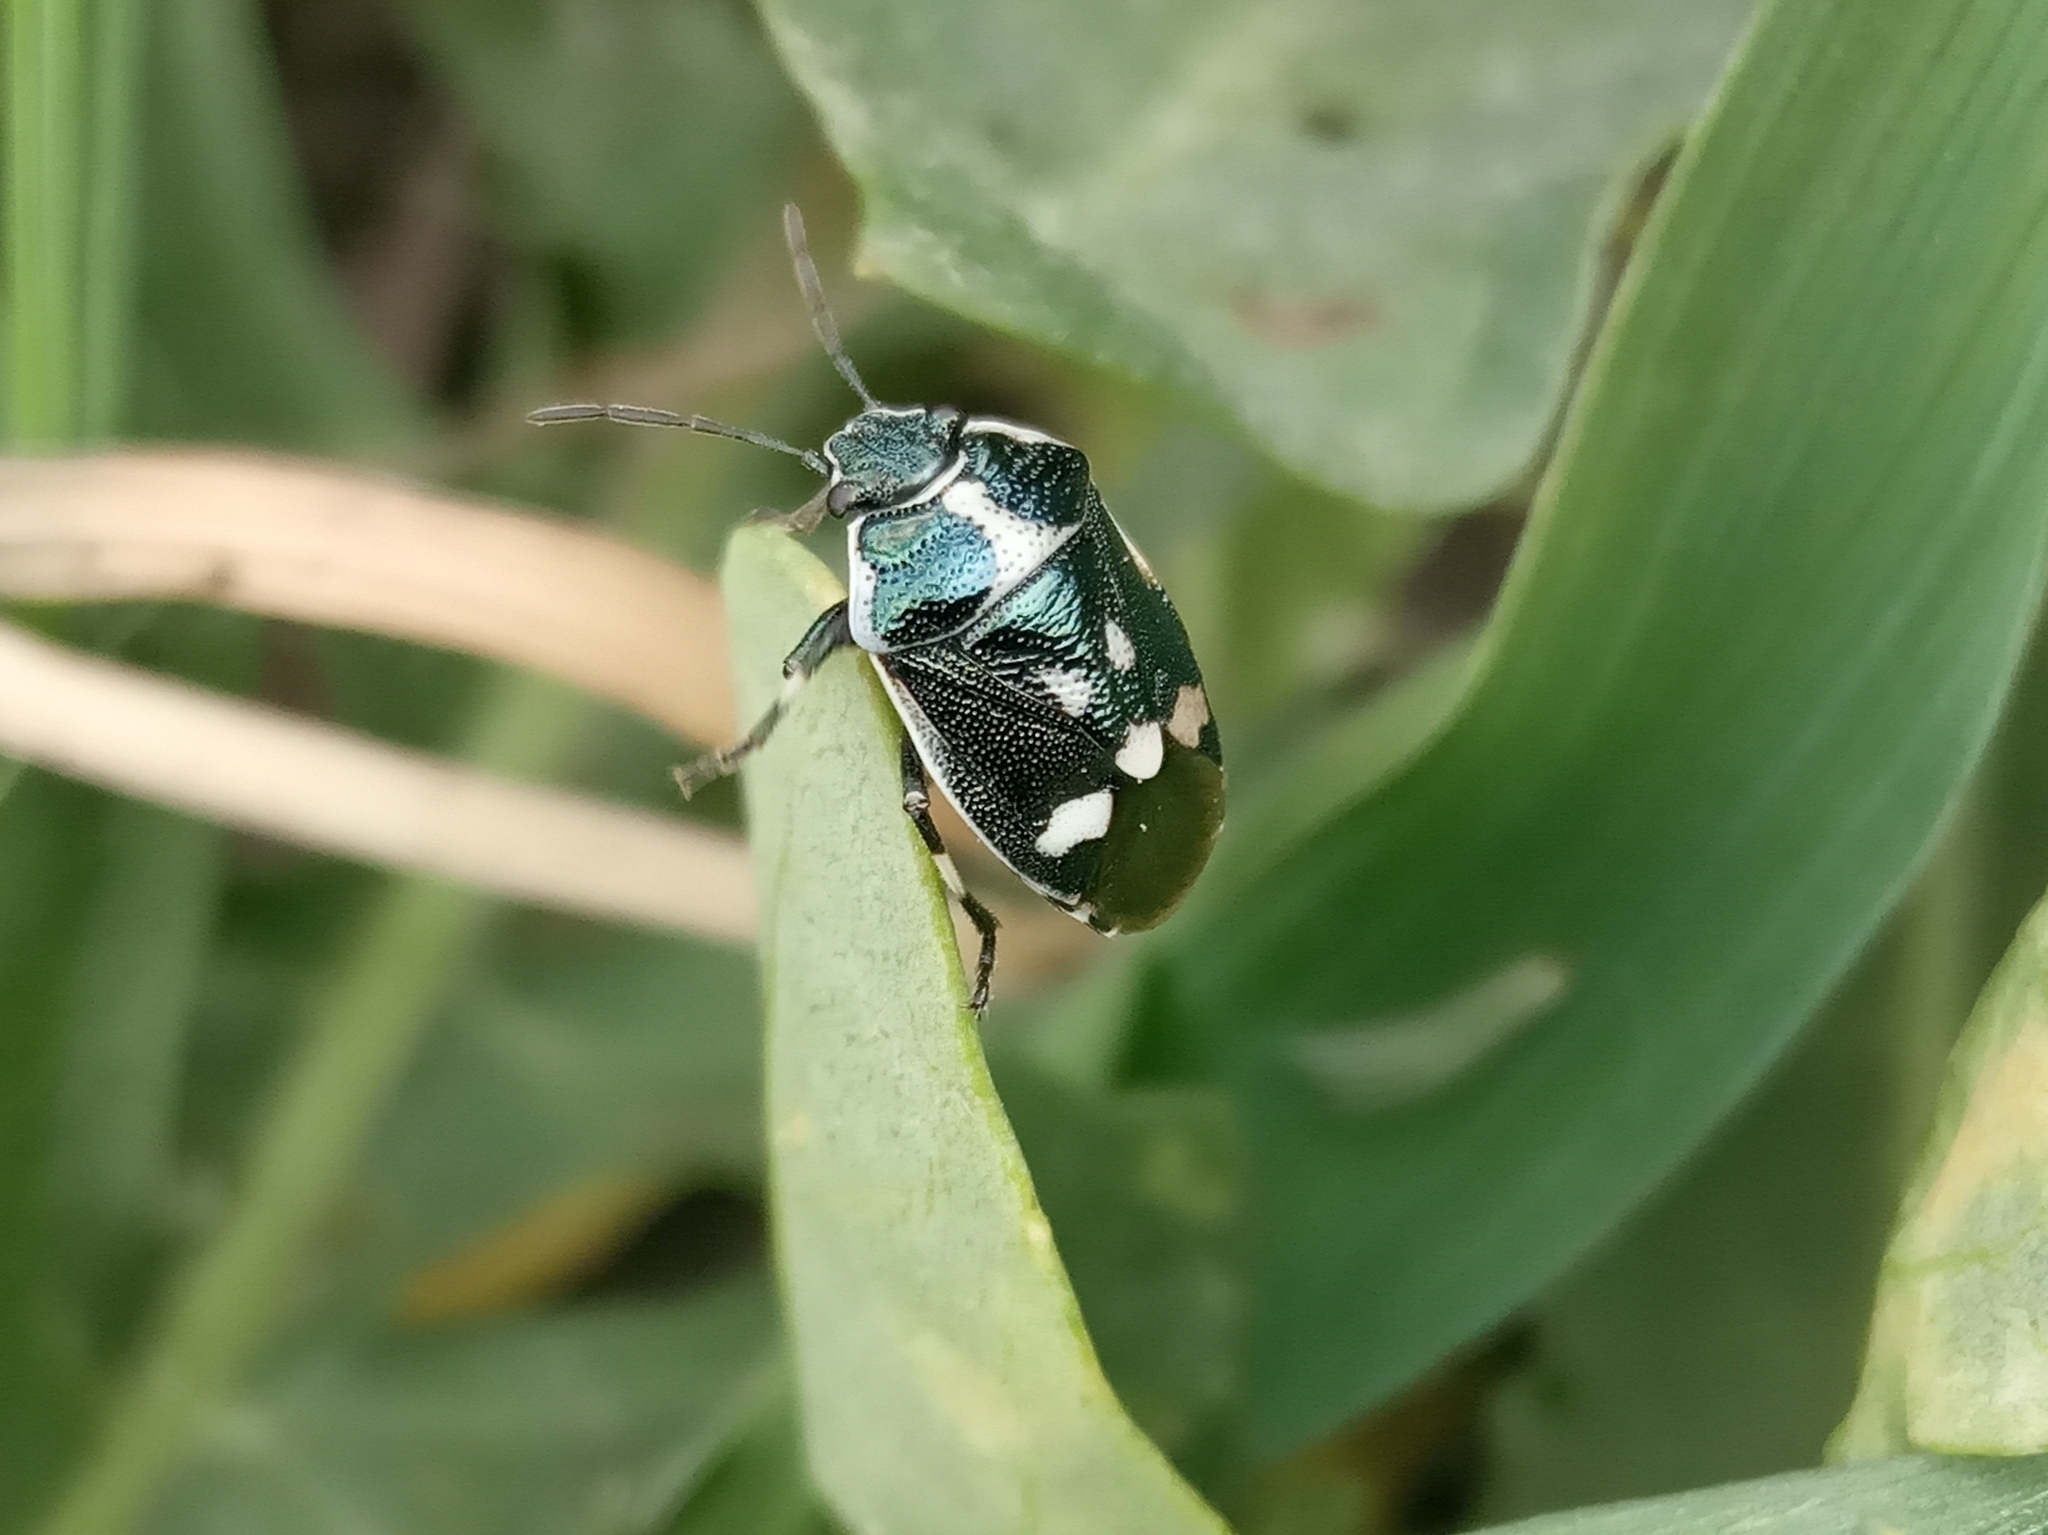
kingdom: Animalia
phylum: Arthropoda
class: Insecta
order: Hemiptera
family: Pentatomidae
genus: Eurydema
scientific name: Eurydema oleracea
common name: Cabbage bug
